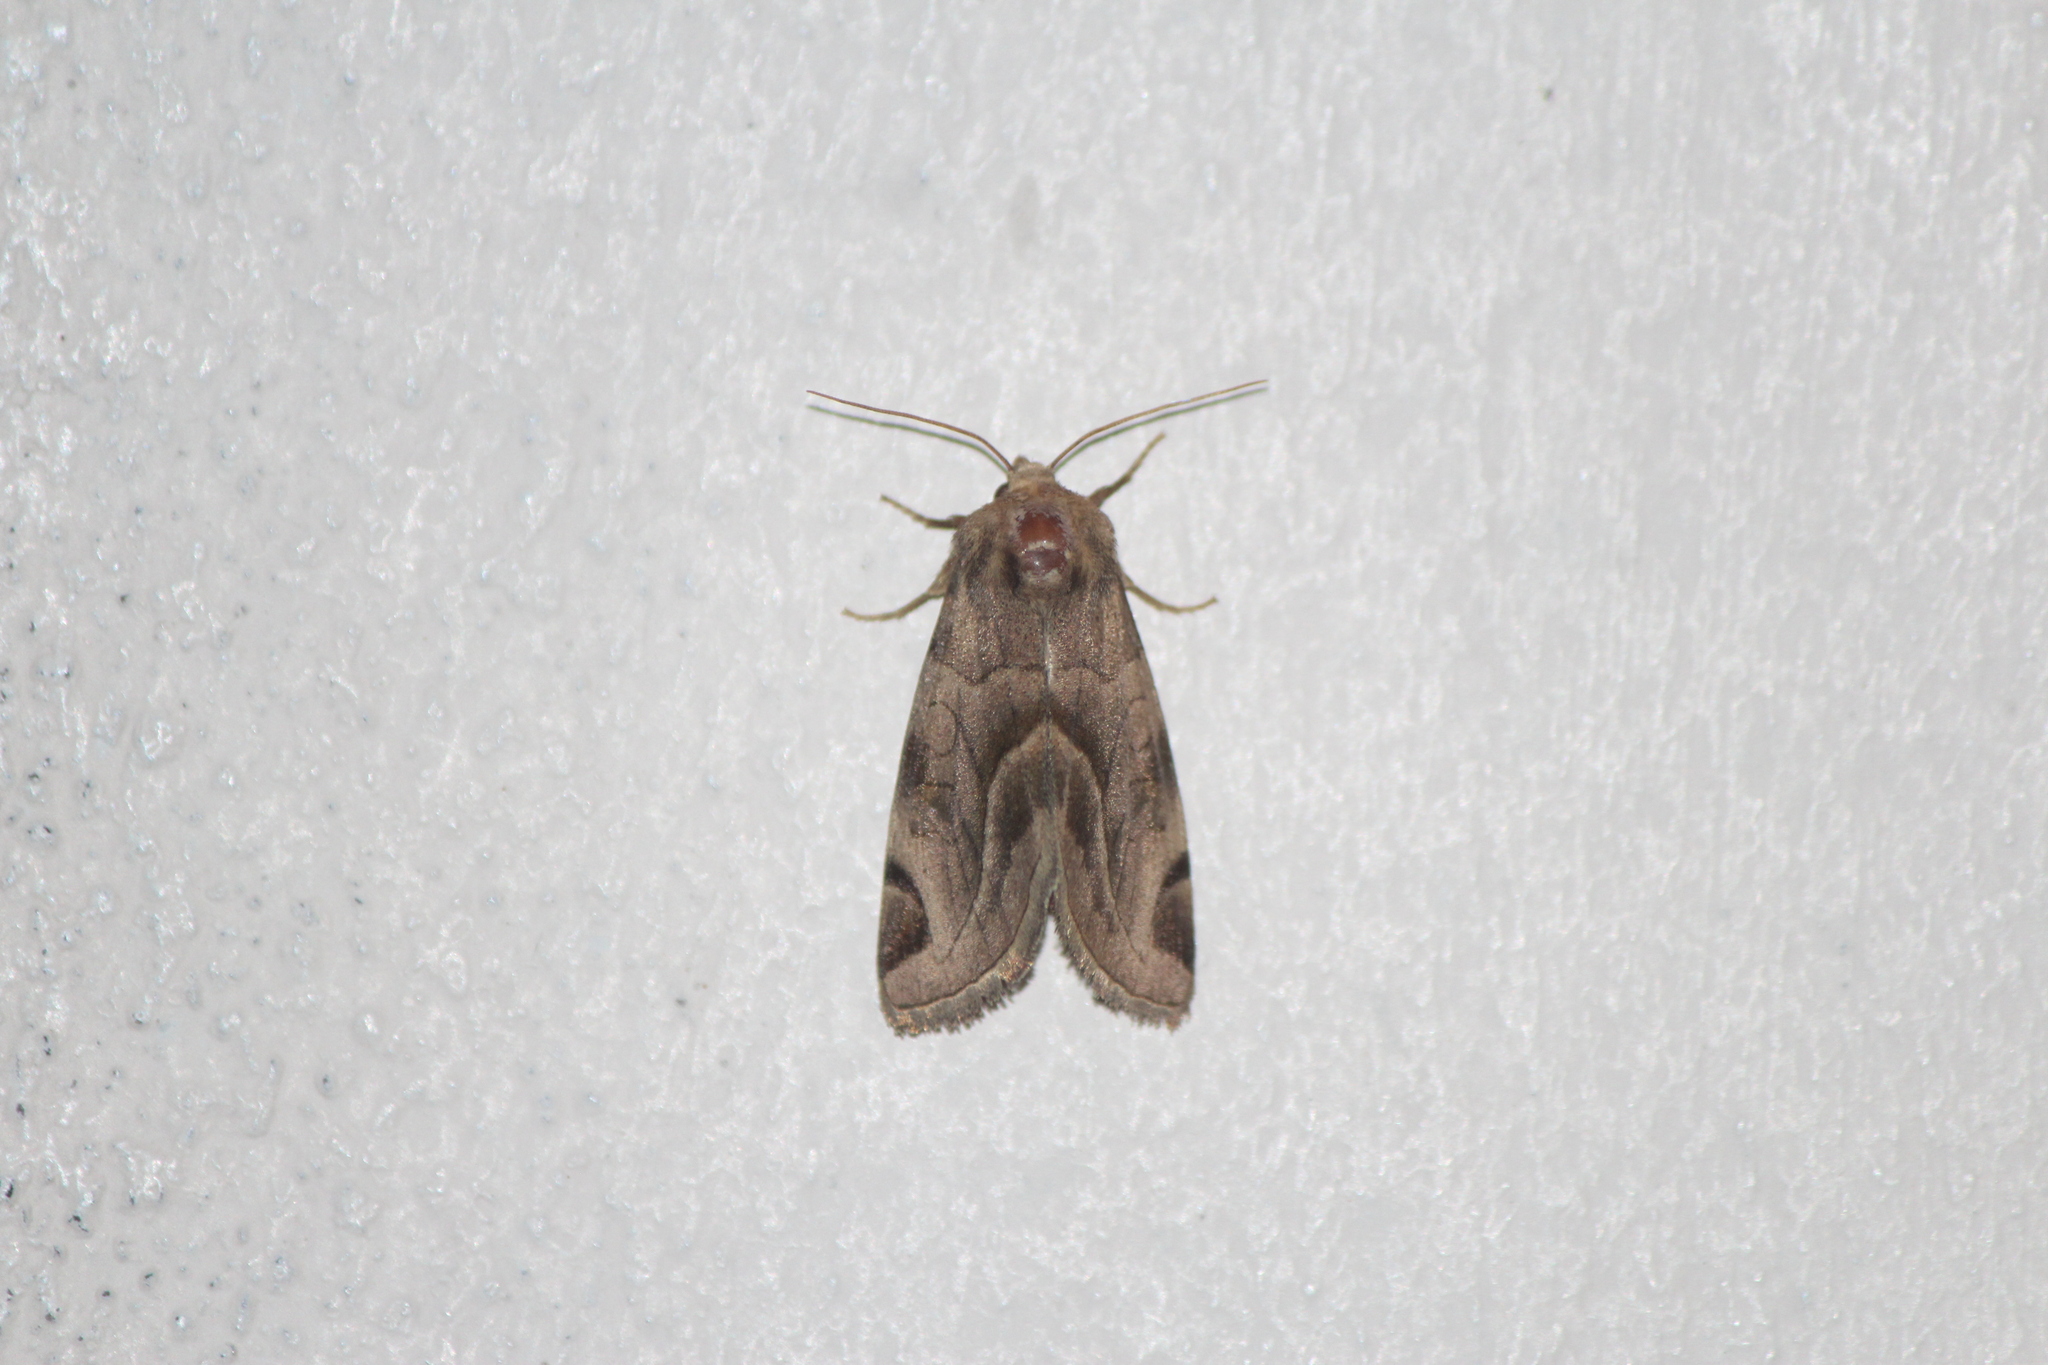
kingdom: Animalia
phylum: Arthropoda
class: Insecta
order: Lepidoptera
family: Noctuidae
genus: Plagiomimicus
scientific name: Plagiomimicus
